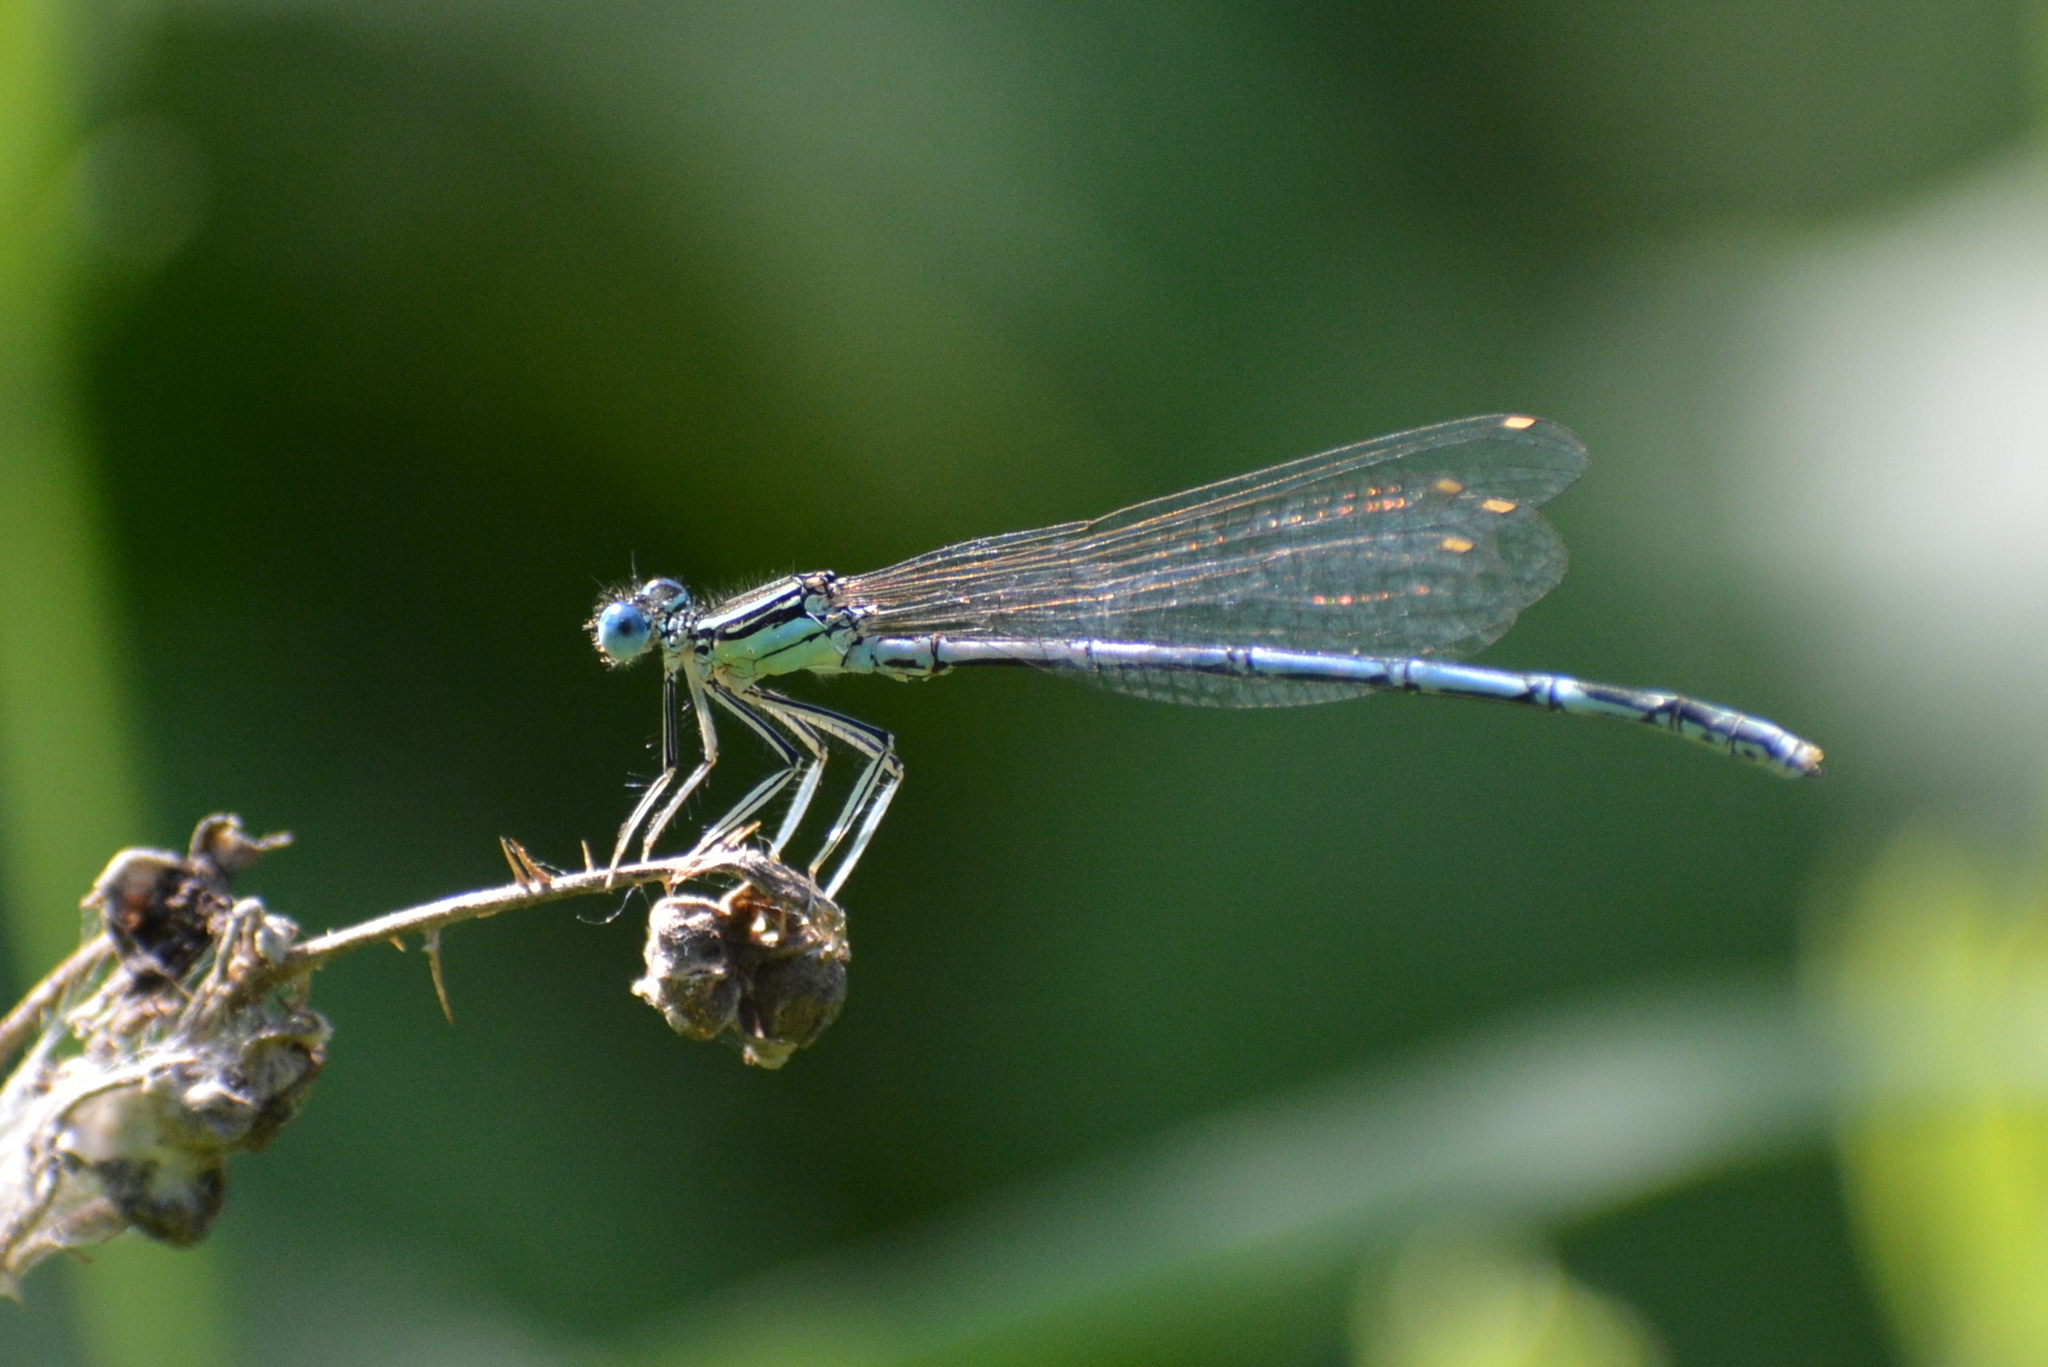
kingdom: Animalia
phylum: Arthropoda
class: Insecta
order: Odonata
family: Platycnemididae
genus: Platycnemis
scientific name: Platycnemis pennipes
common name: White-legged damselfly
